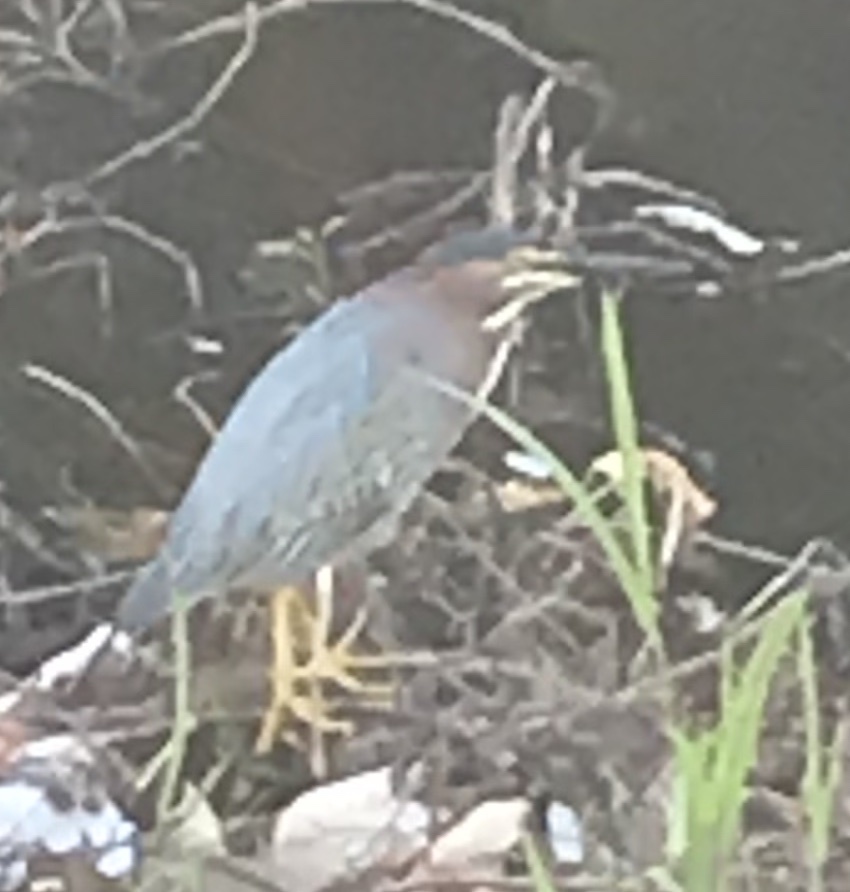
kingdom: Animalia
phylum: Chordata
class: Aves
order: Pelecaniformes
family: Ardeidae
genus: Butorides
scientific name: Butorides virescens
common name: Green heron
